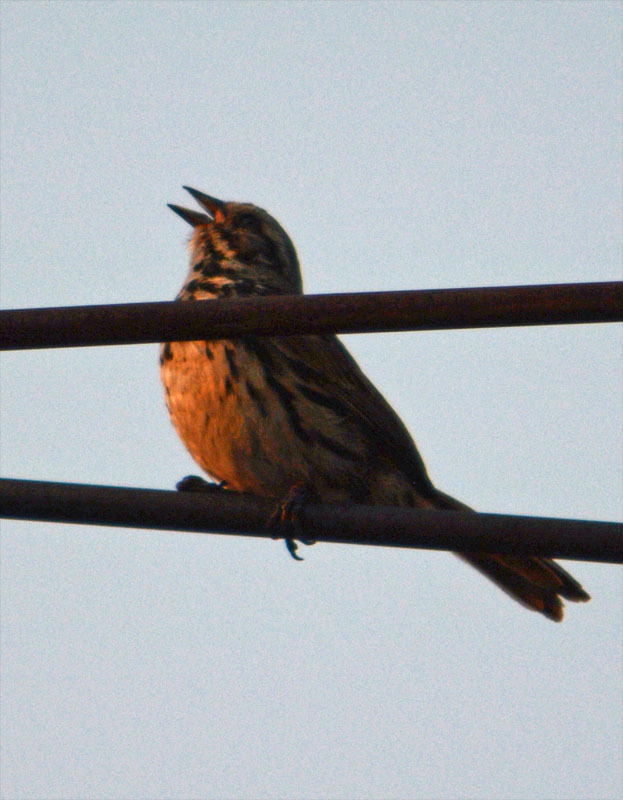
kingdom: Animalia
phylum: Chordata
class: Aves
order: Passeriformes
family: Passerellidae
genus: Melospiza
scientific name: Melospiza melodia
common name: Song sparrow
